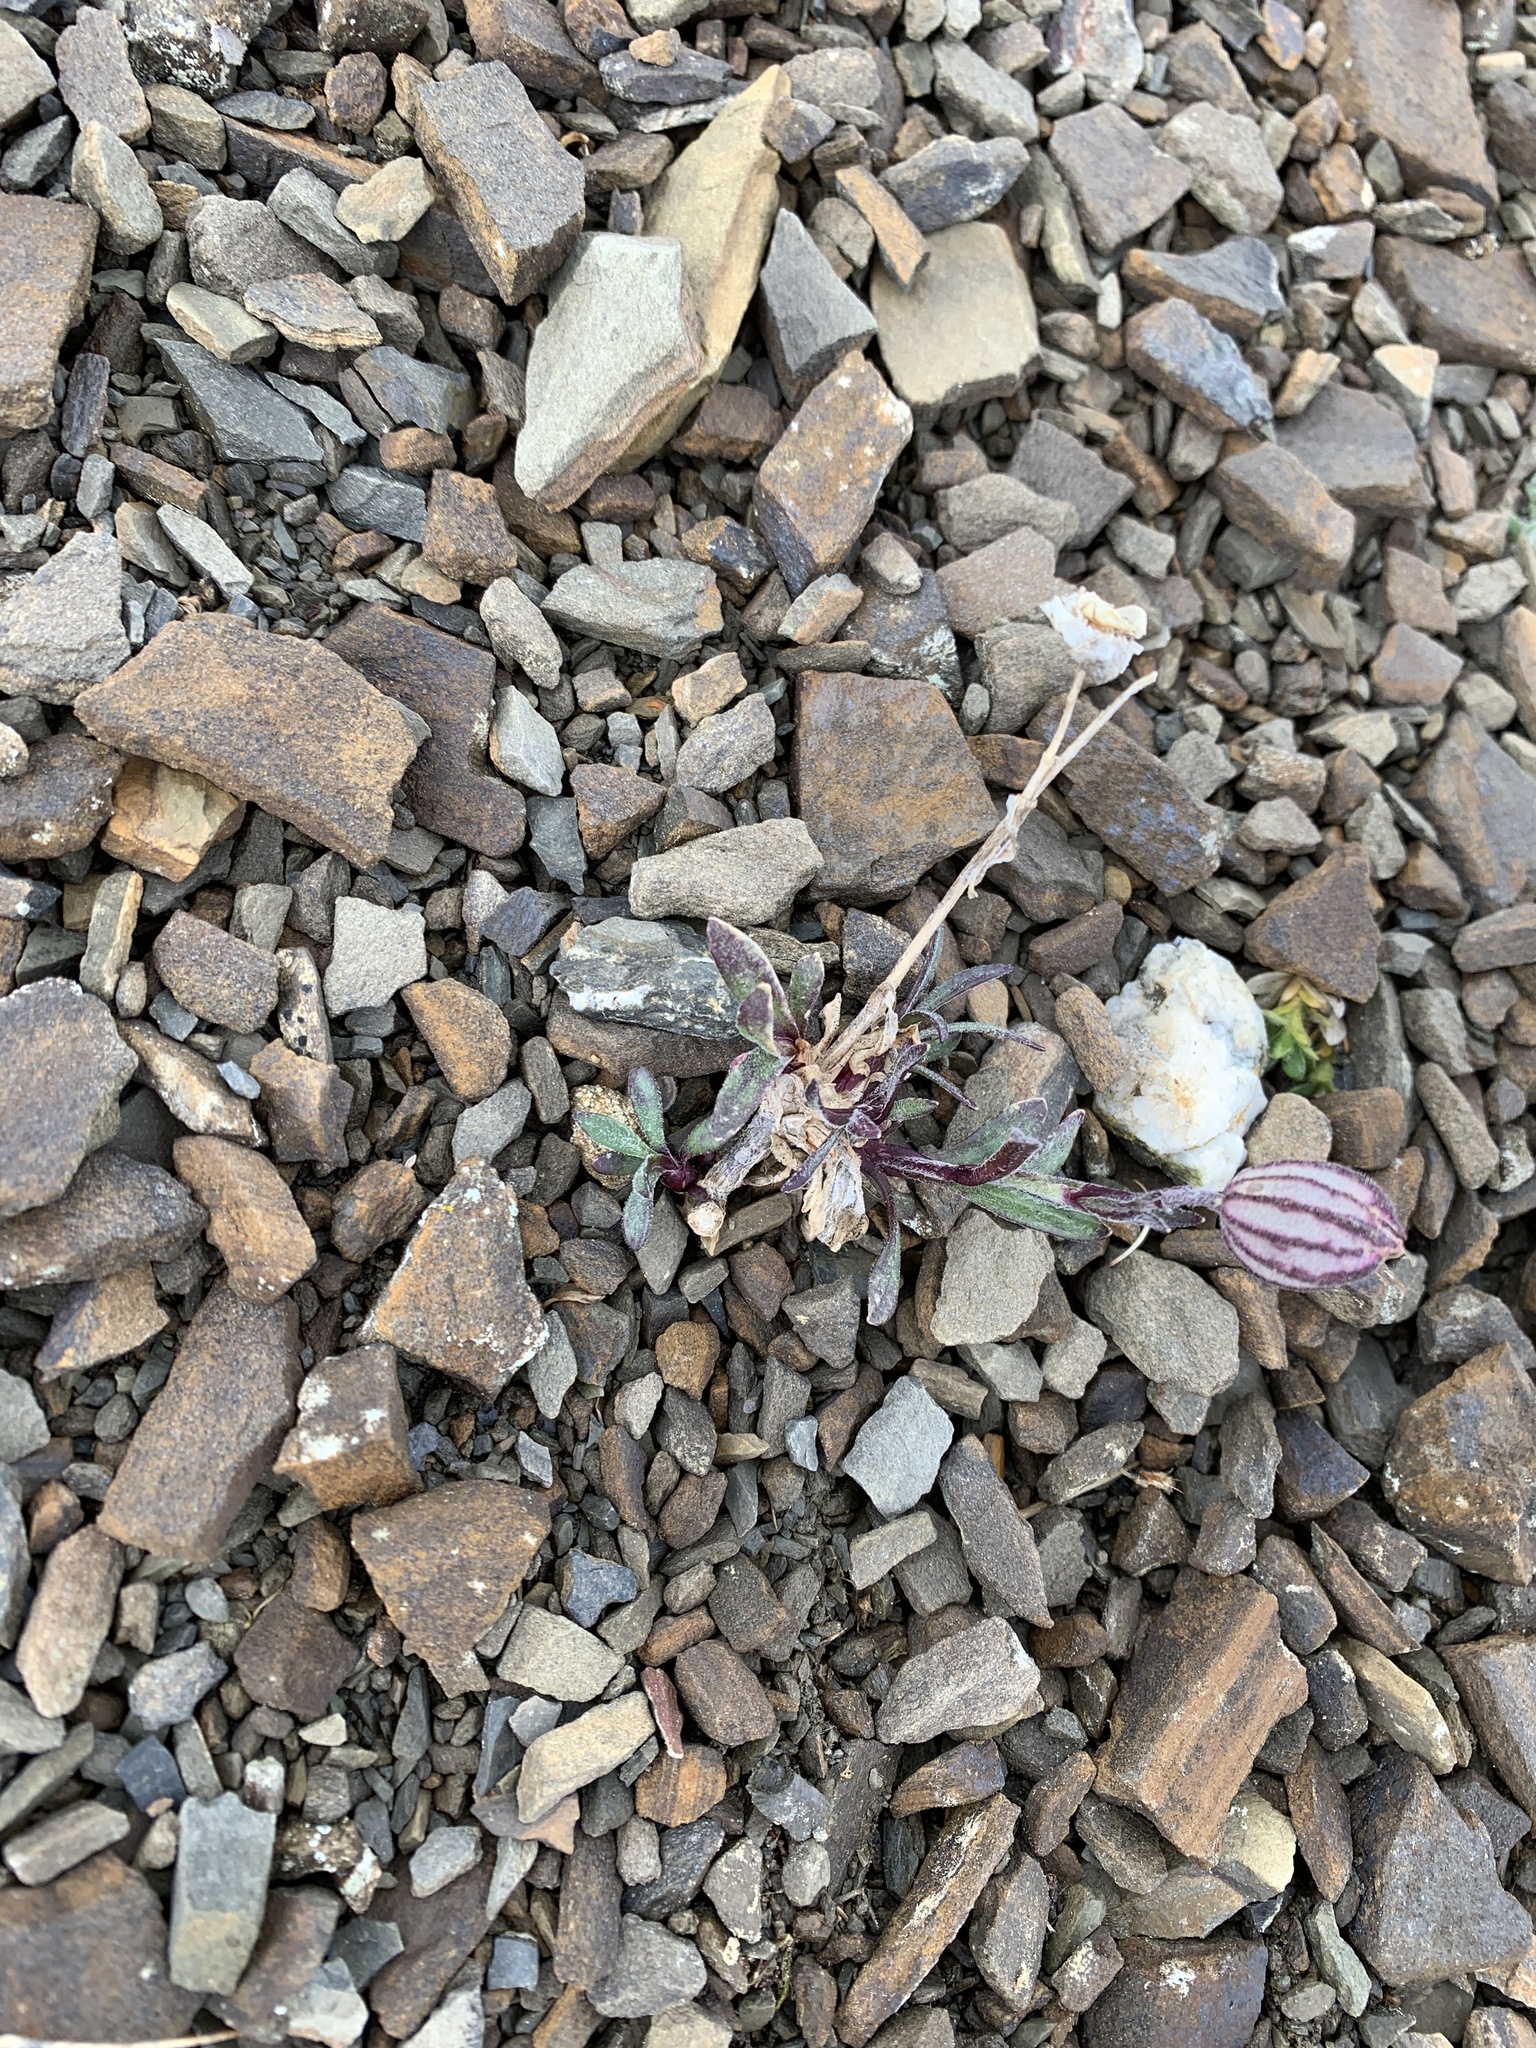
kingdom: Plantae
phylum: Tracheophyta
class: Magnoliopsida
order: Caryophyllales
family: Caryophyllaceae
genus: Silene
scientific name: Silene uralensis
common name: Nodding campion
